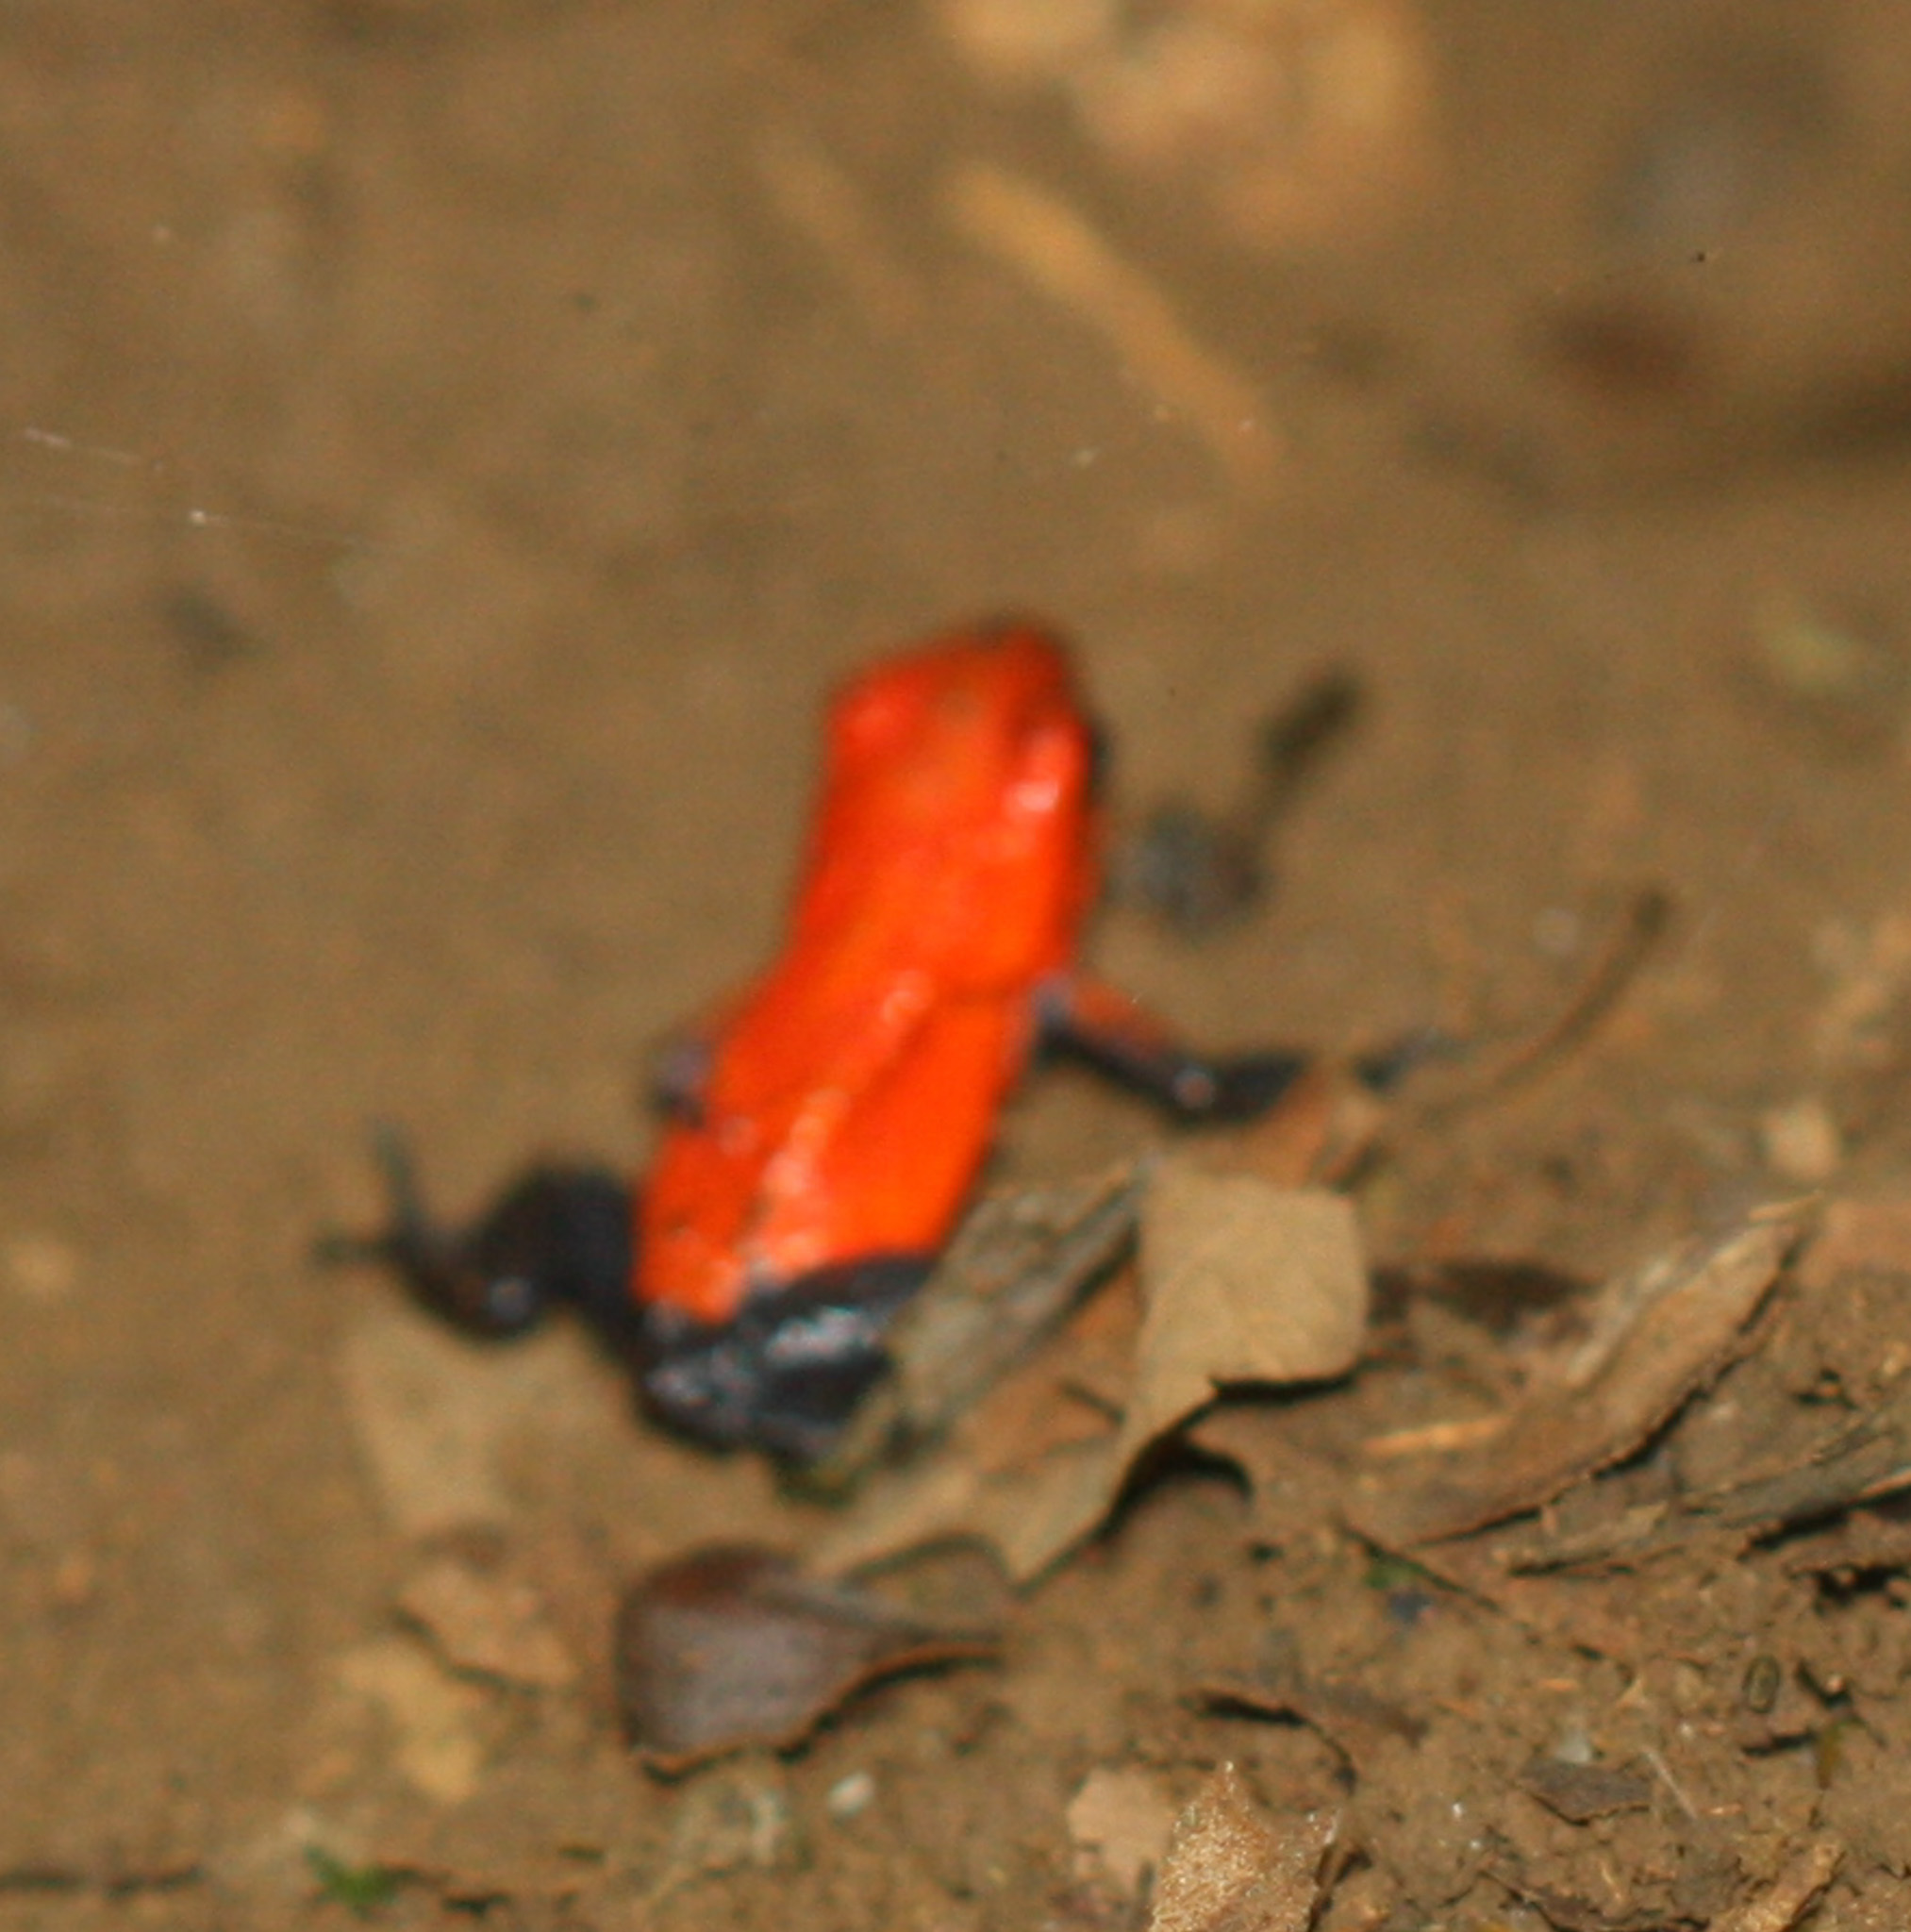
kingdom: Animalia
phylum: Chordata
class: Amphibia
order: Anura
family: Dendrobatidae
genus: Oophaga
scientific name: Oophaga pumilio
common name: Flaming poison frog
